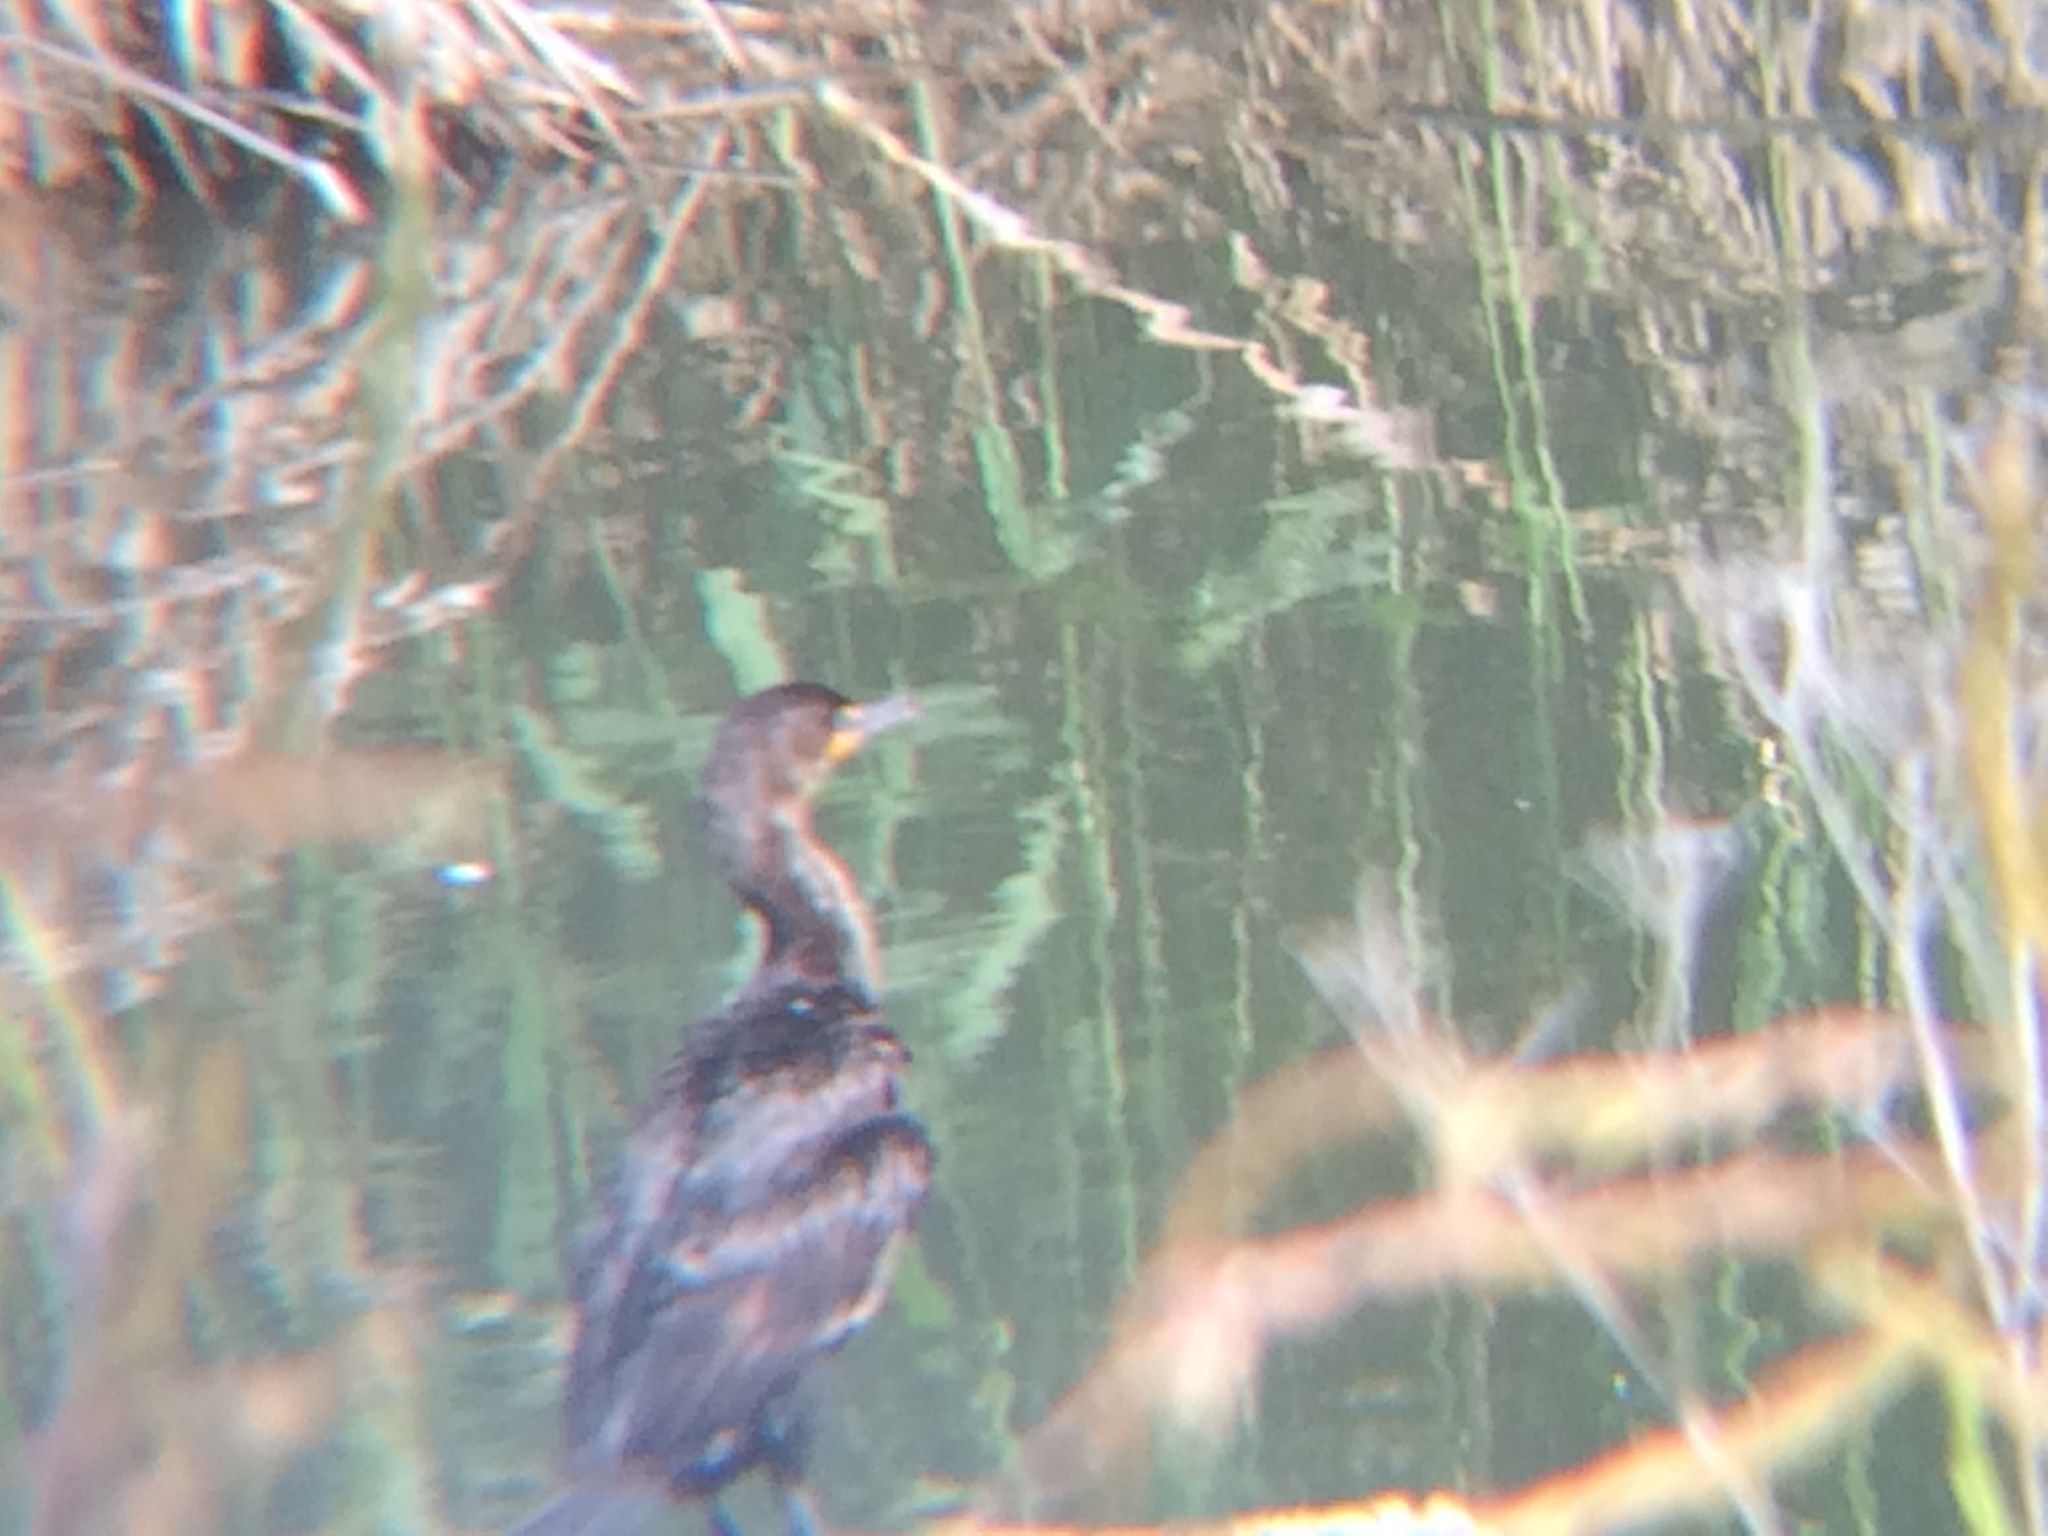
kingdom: Animalia
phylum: Chordata
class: Aves
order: Suliformes
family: Phalacrocoracidae
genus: Phalacrocorax
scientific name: Phalacrocorax auritus
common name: Double-crested cormorant
